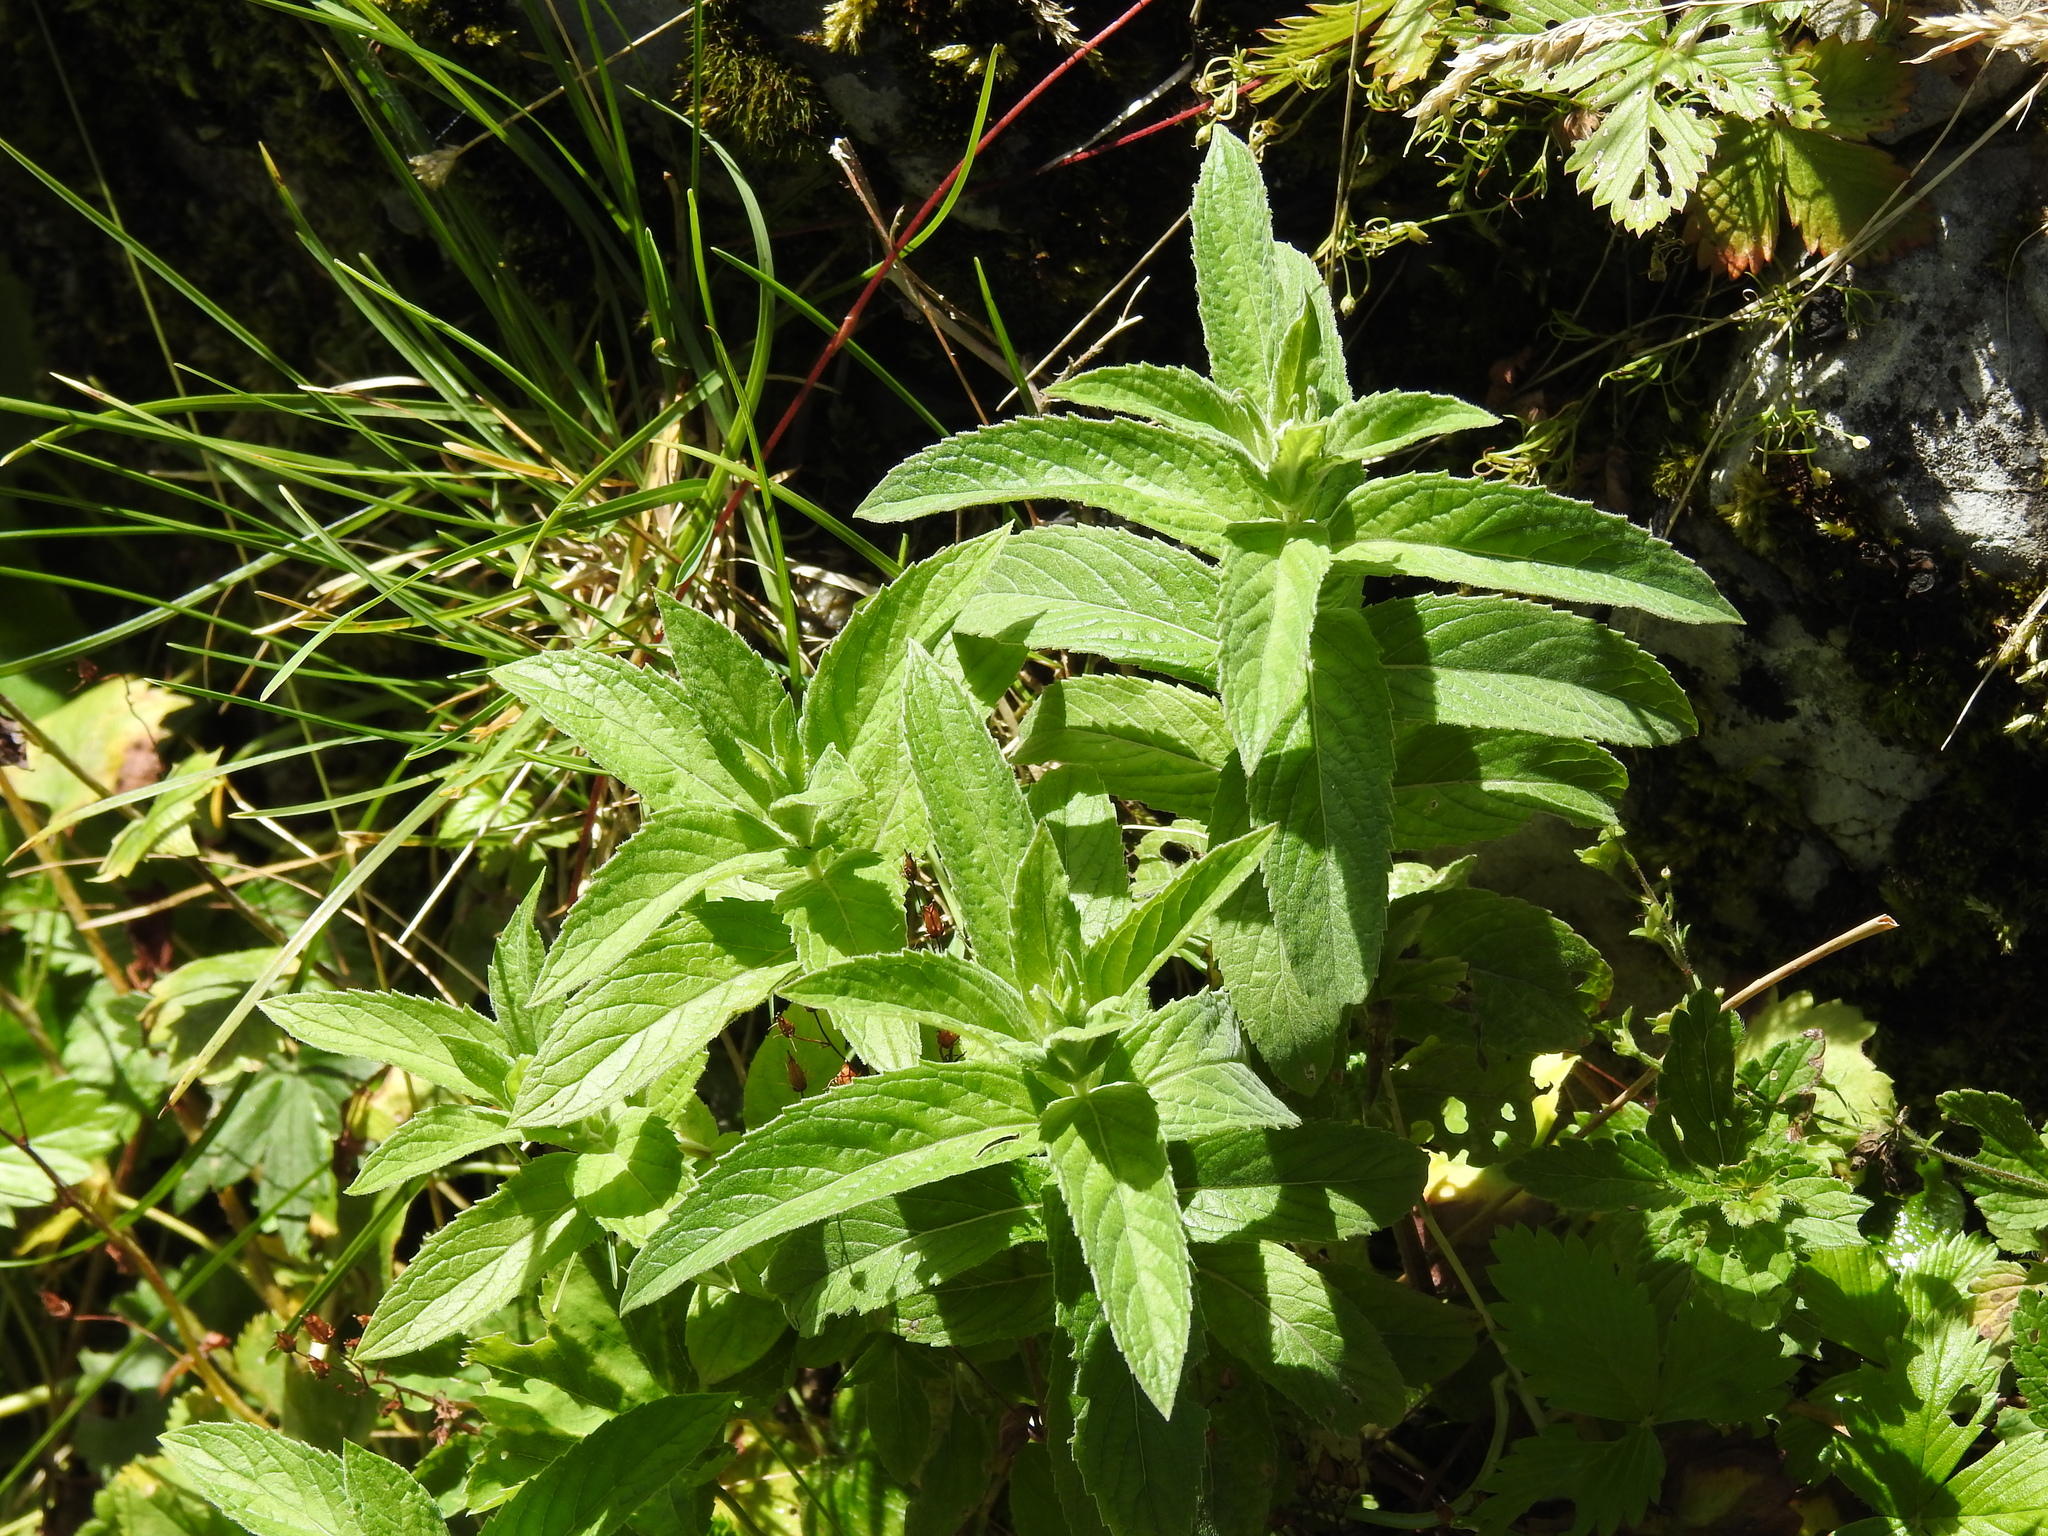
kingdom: Plantae
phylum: Tracheophyta
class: Magnoliopsida
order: Lamiales
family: Lamiaceae
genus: Mentha
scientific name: Mentha longifolia
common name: Horse mint
